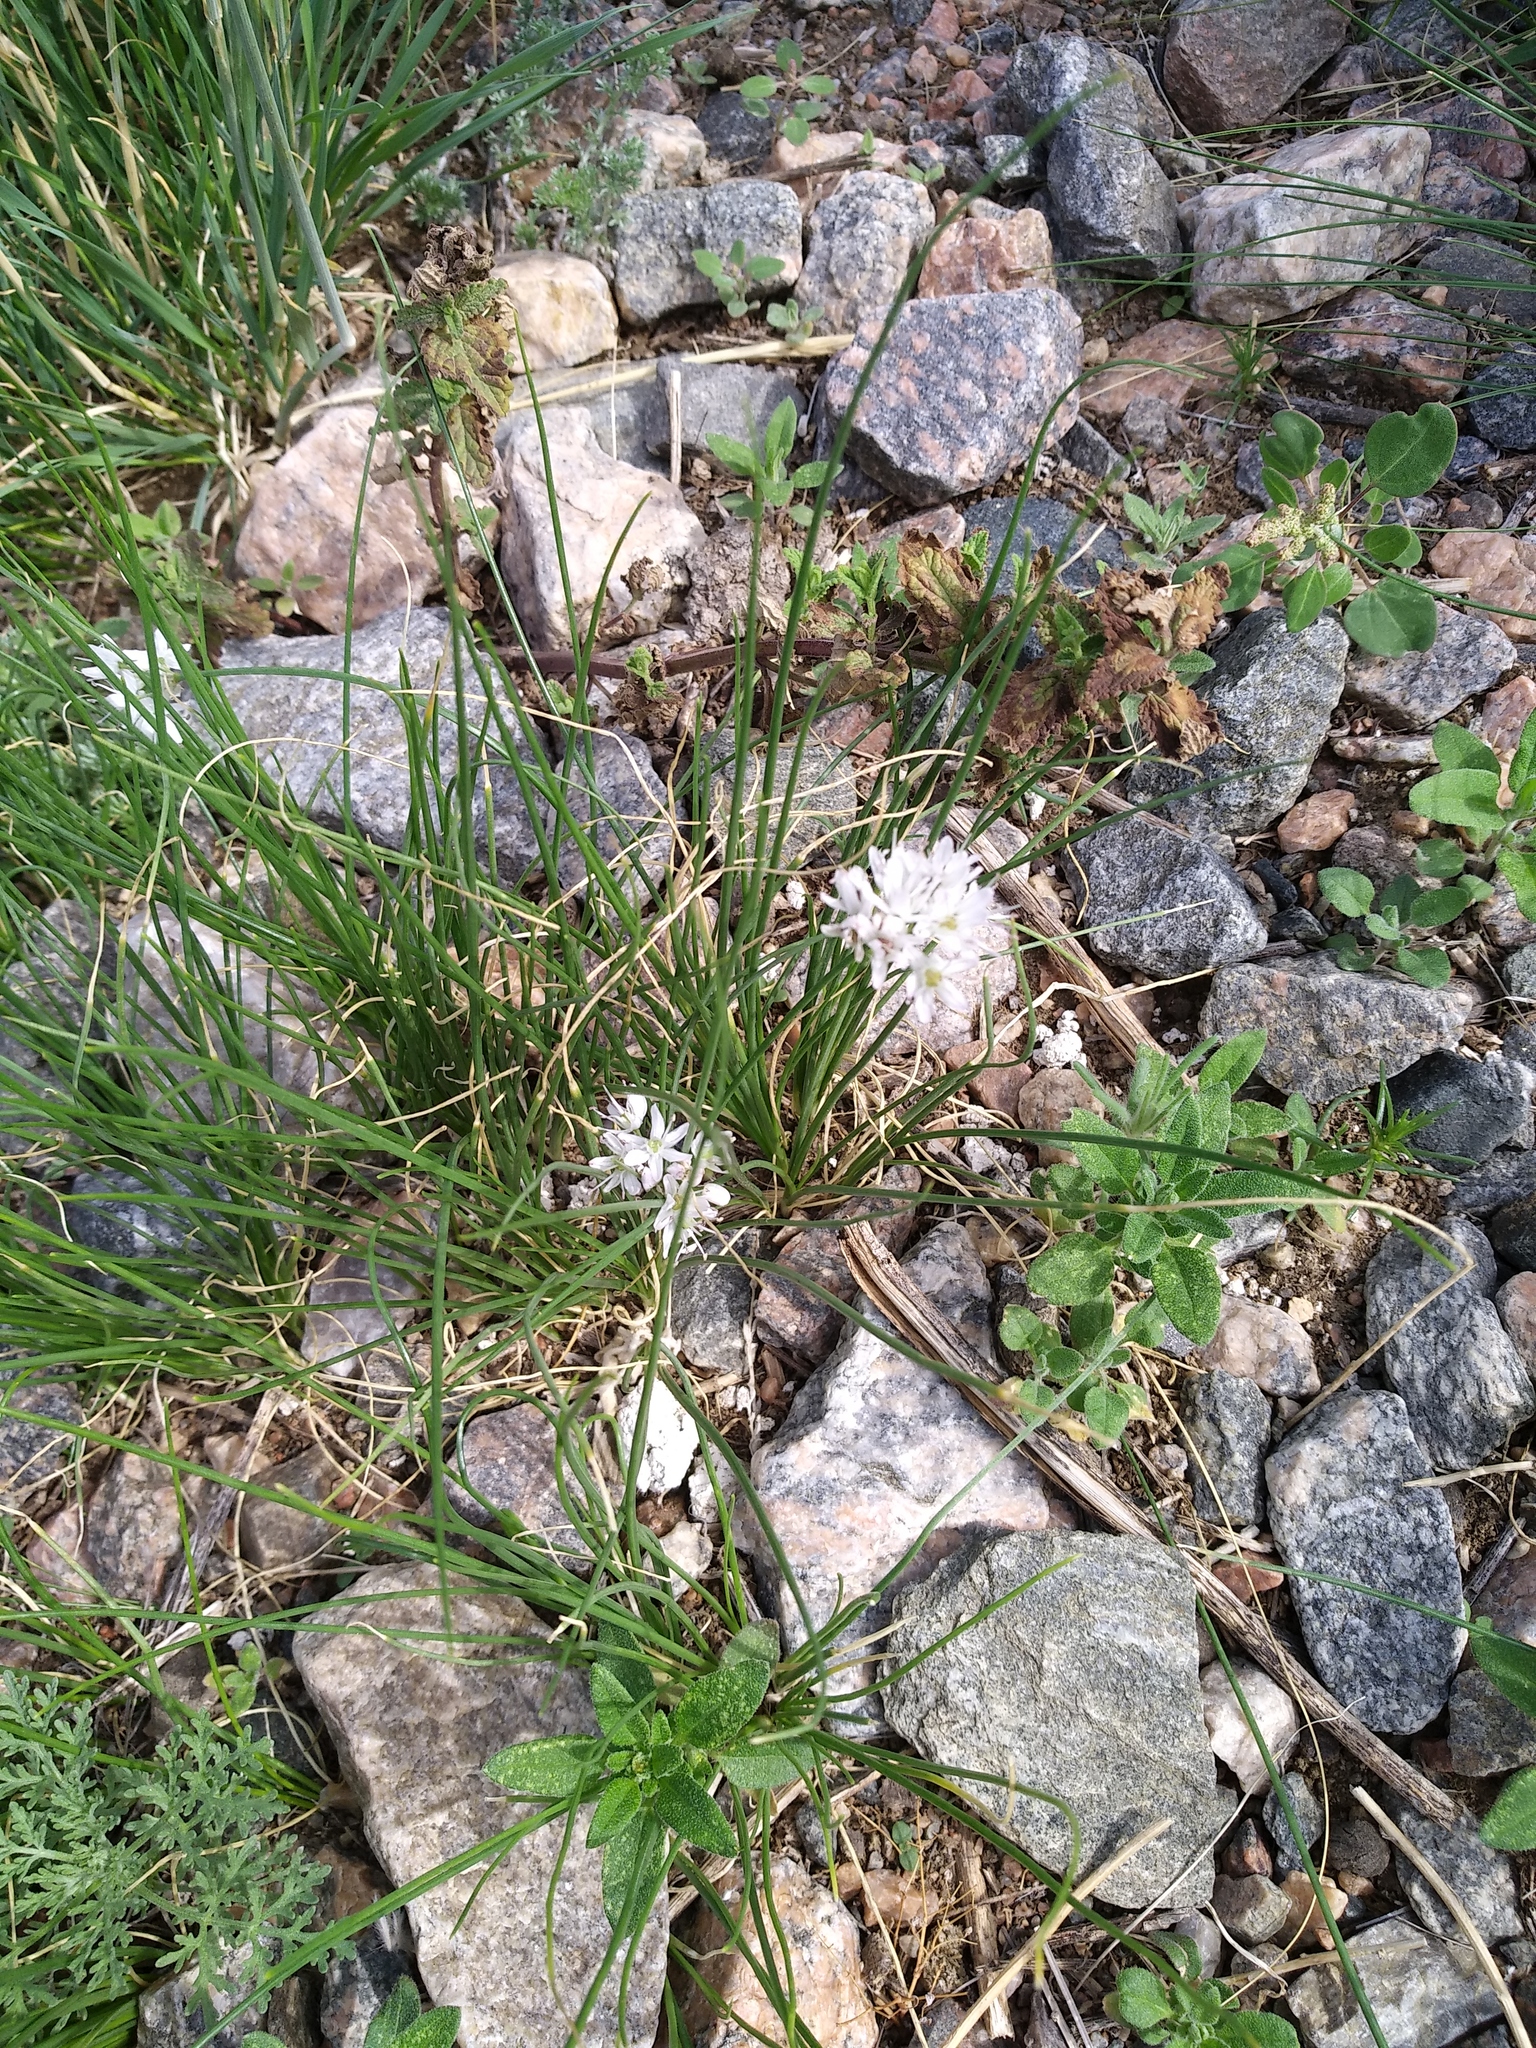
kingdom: Plantae
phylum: Tracheophyta
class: Liliopsida
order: Asparagales
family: Amaryllidaceae
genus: Allium
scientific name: Allium polyrhizum
